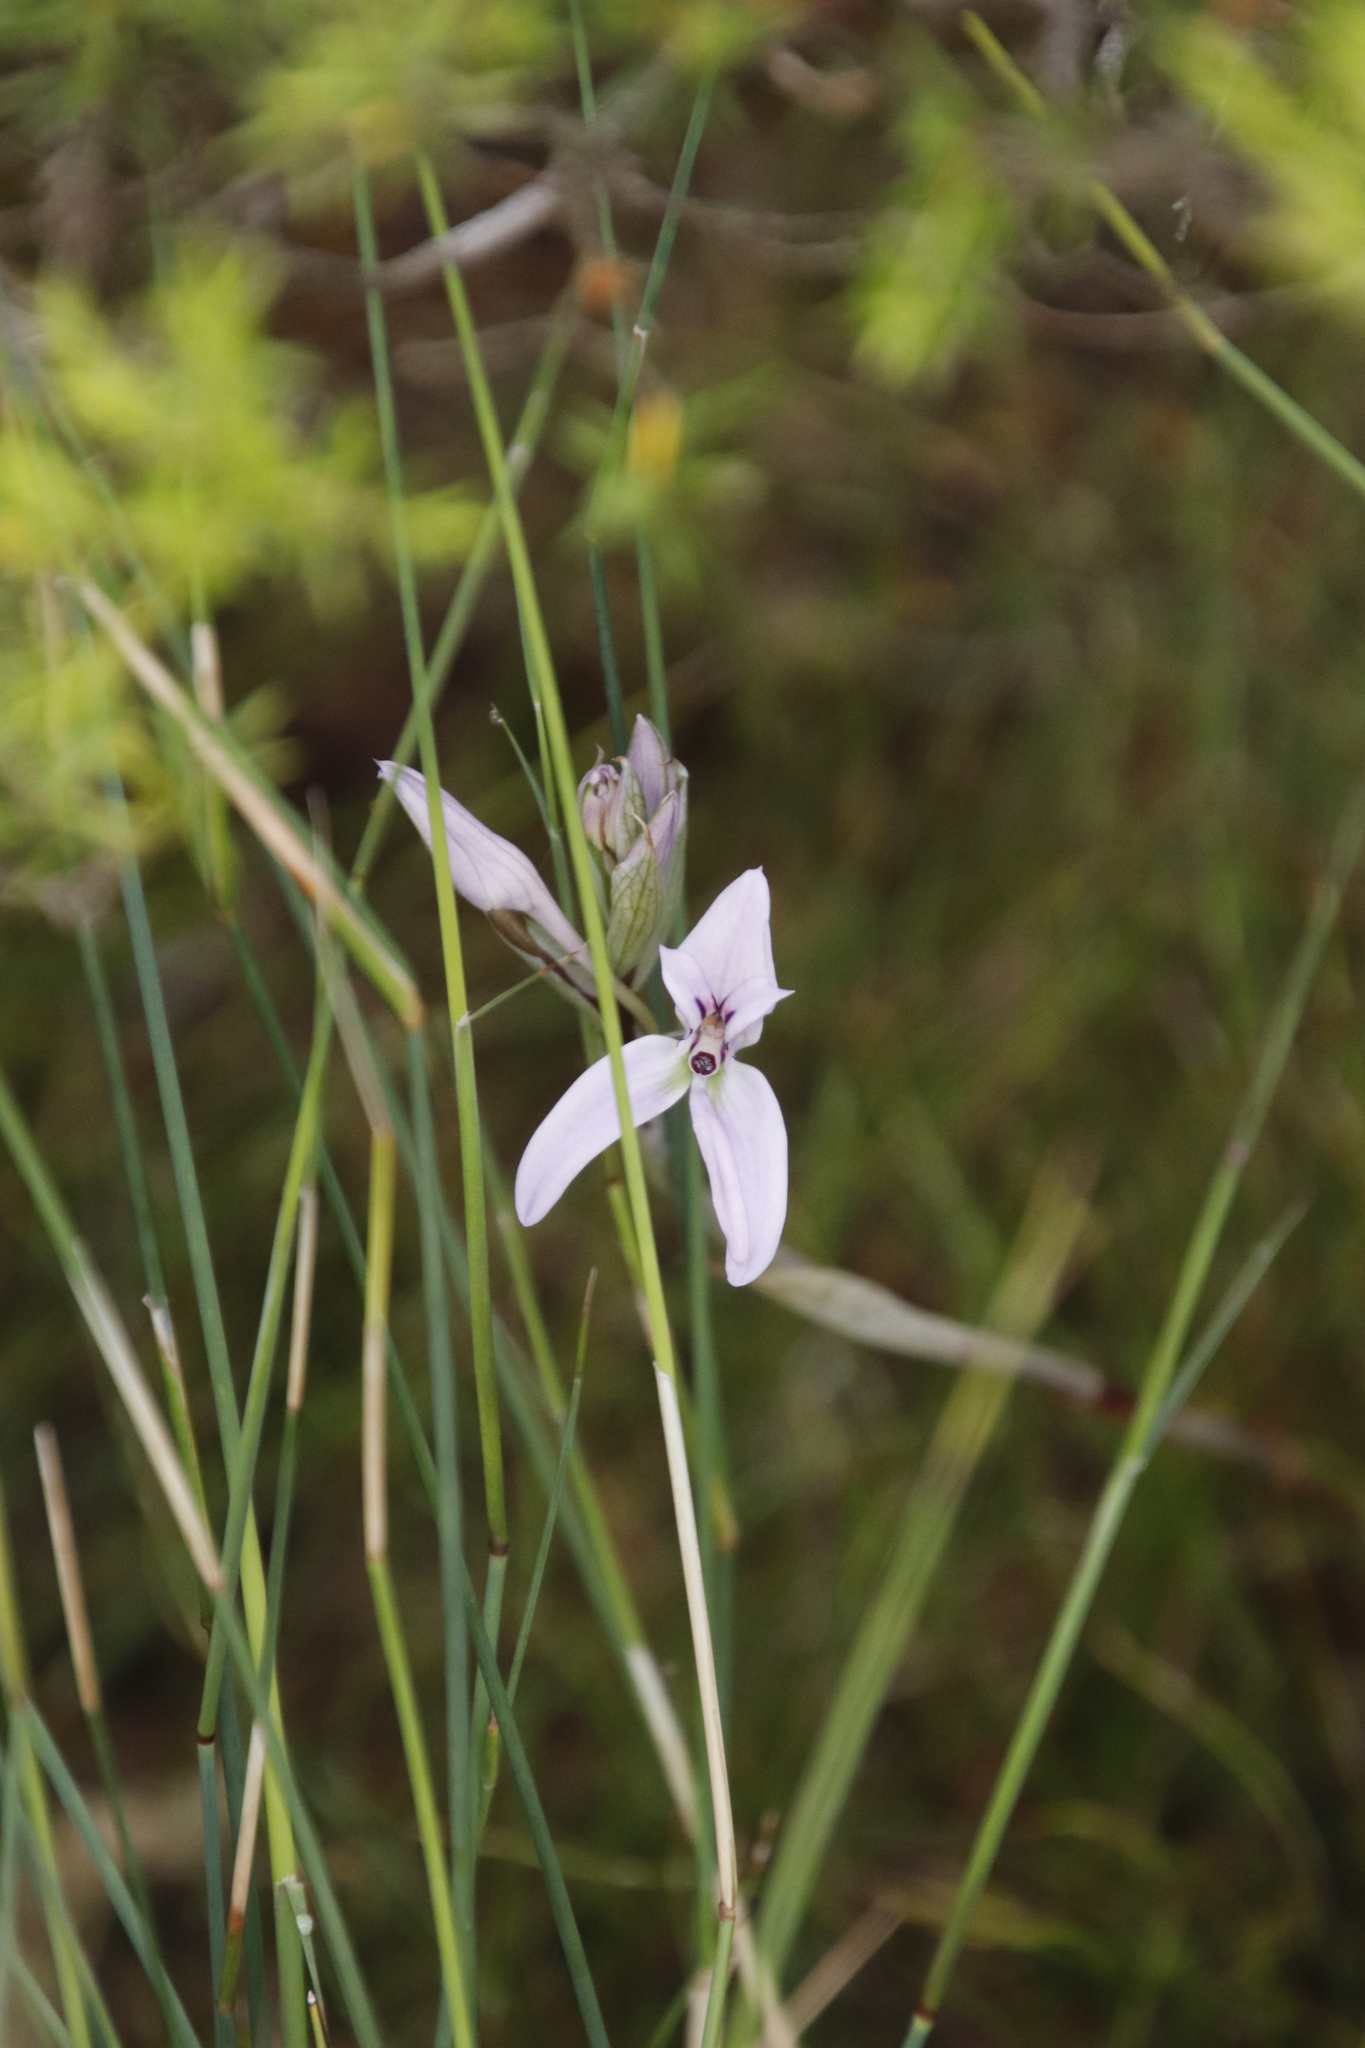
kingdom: Plantae
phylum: Tracheophyta
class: Liliopsida
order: Asparagales
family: Orchidaceae
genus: Disa
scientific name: Disa harveyana
